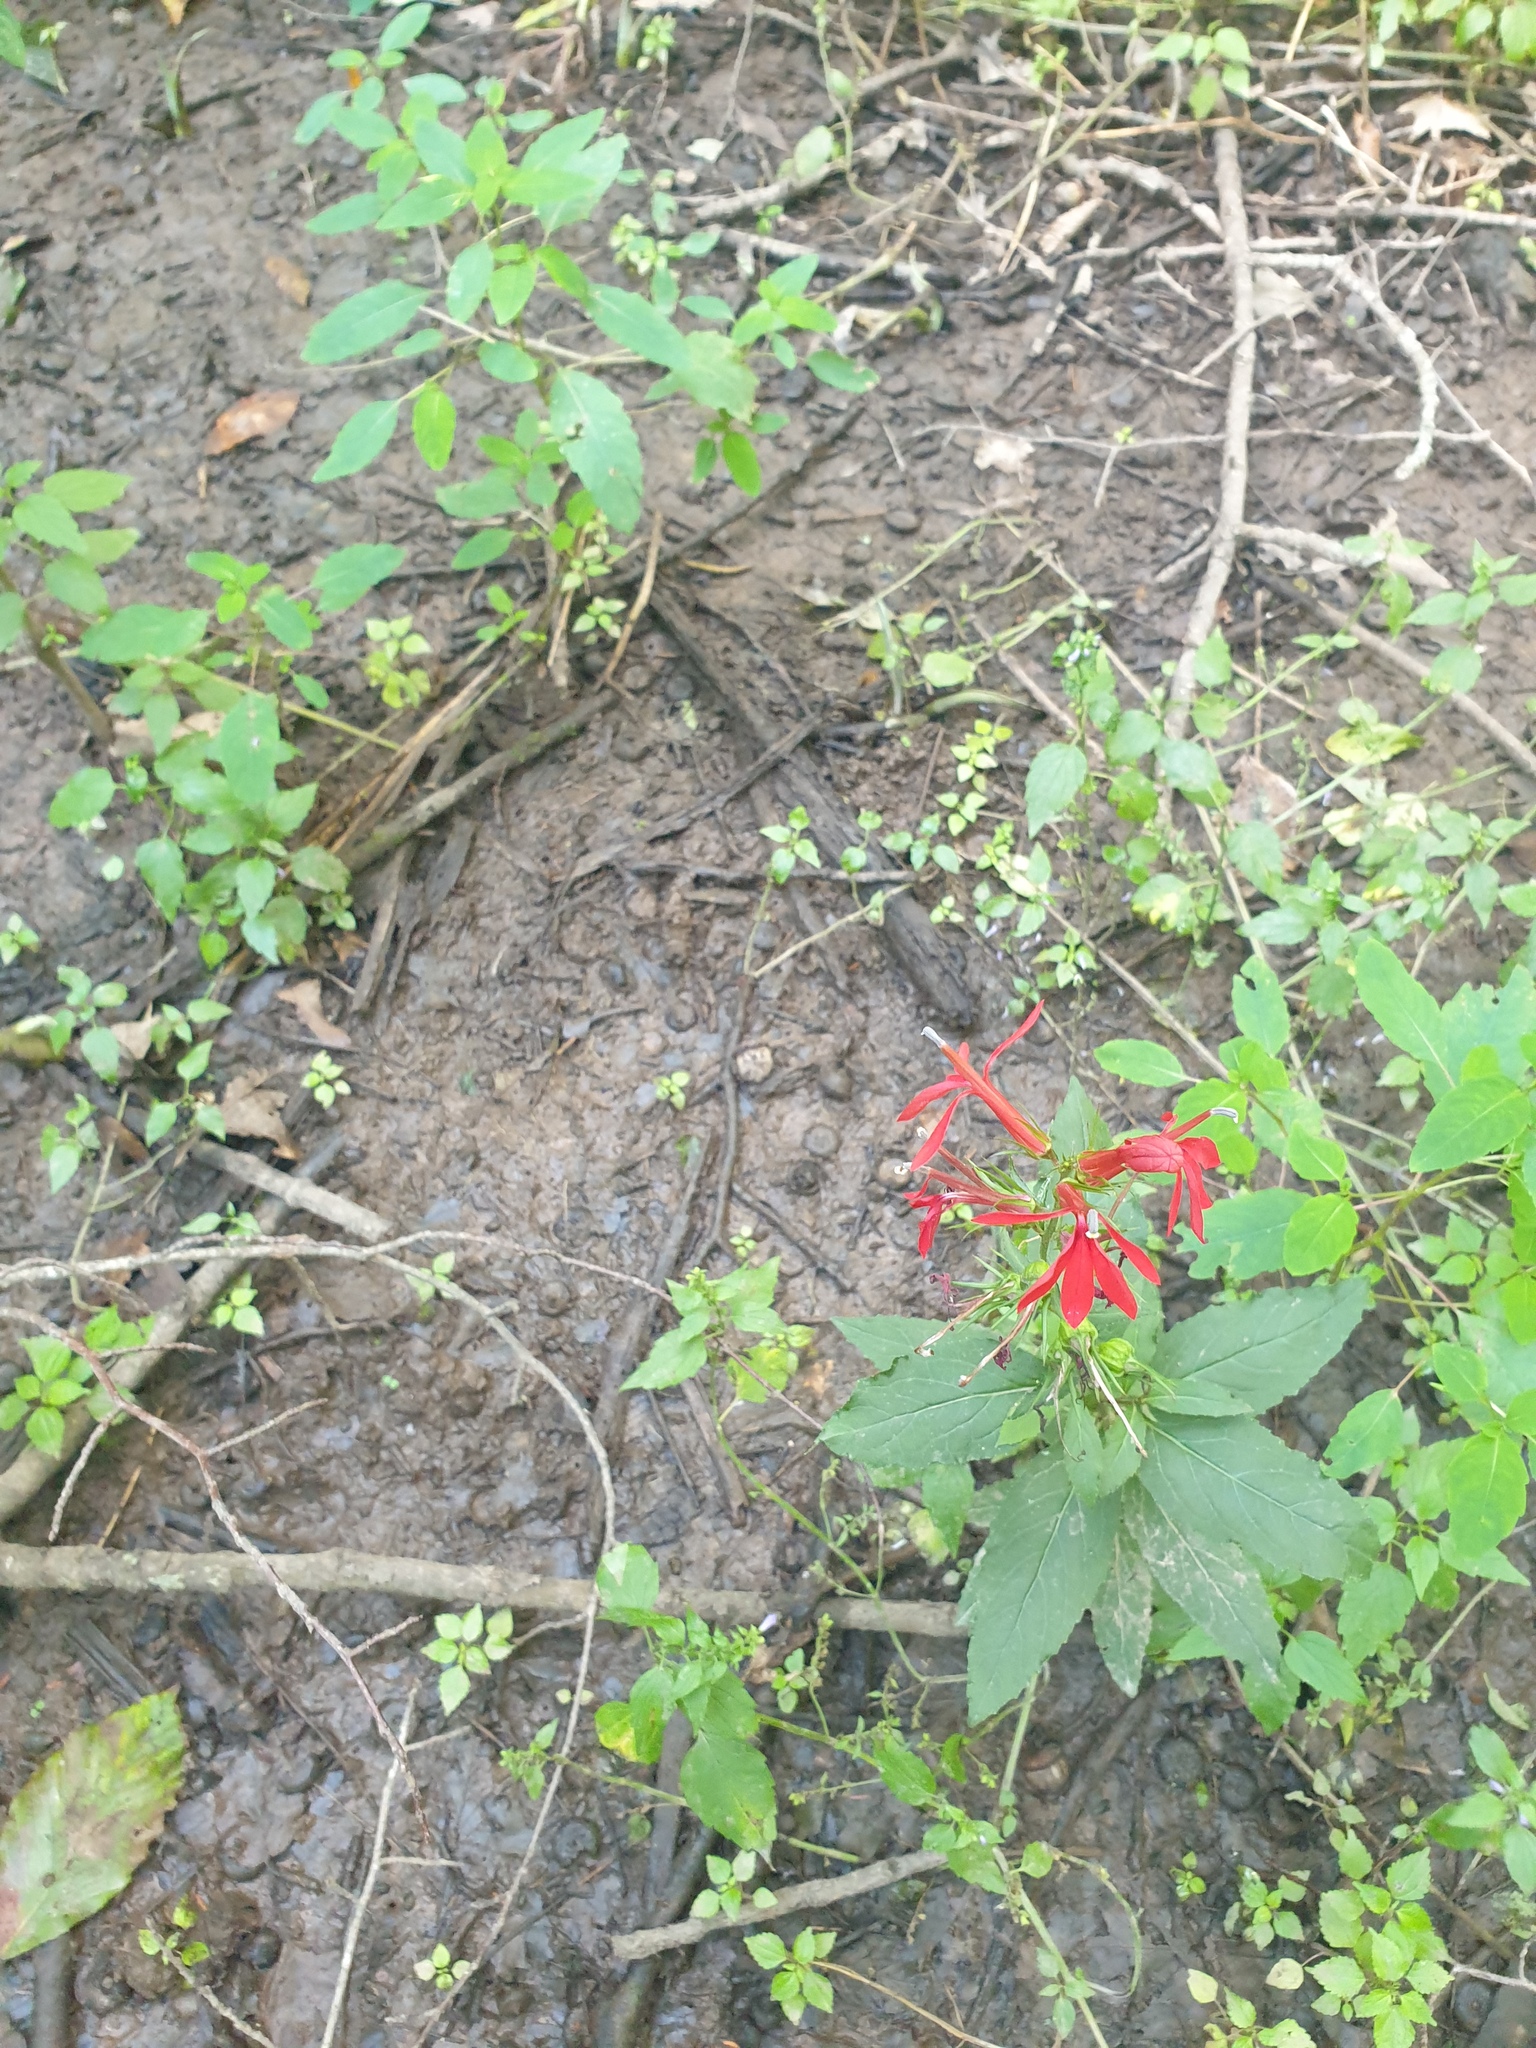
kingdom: Plantae
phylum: Tracheophyta
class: Magnoliopsida
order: Asterales
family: Campanulaceae
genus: Lobelia
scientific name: Lobelia cardinalis
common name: Cardinal flower
